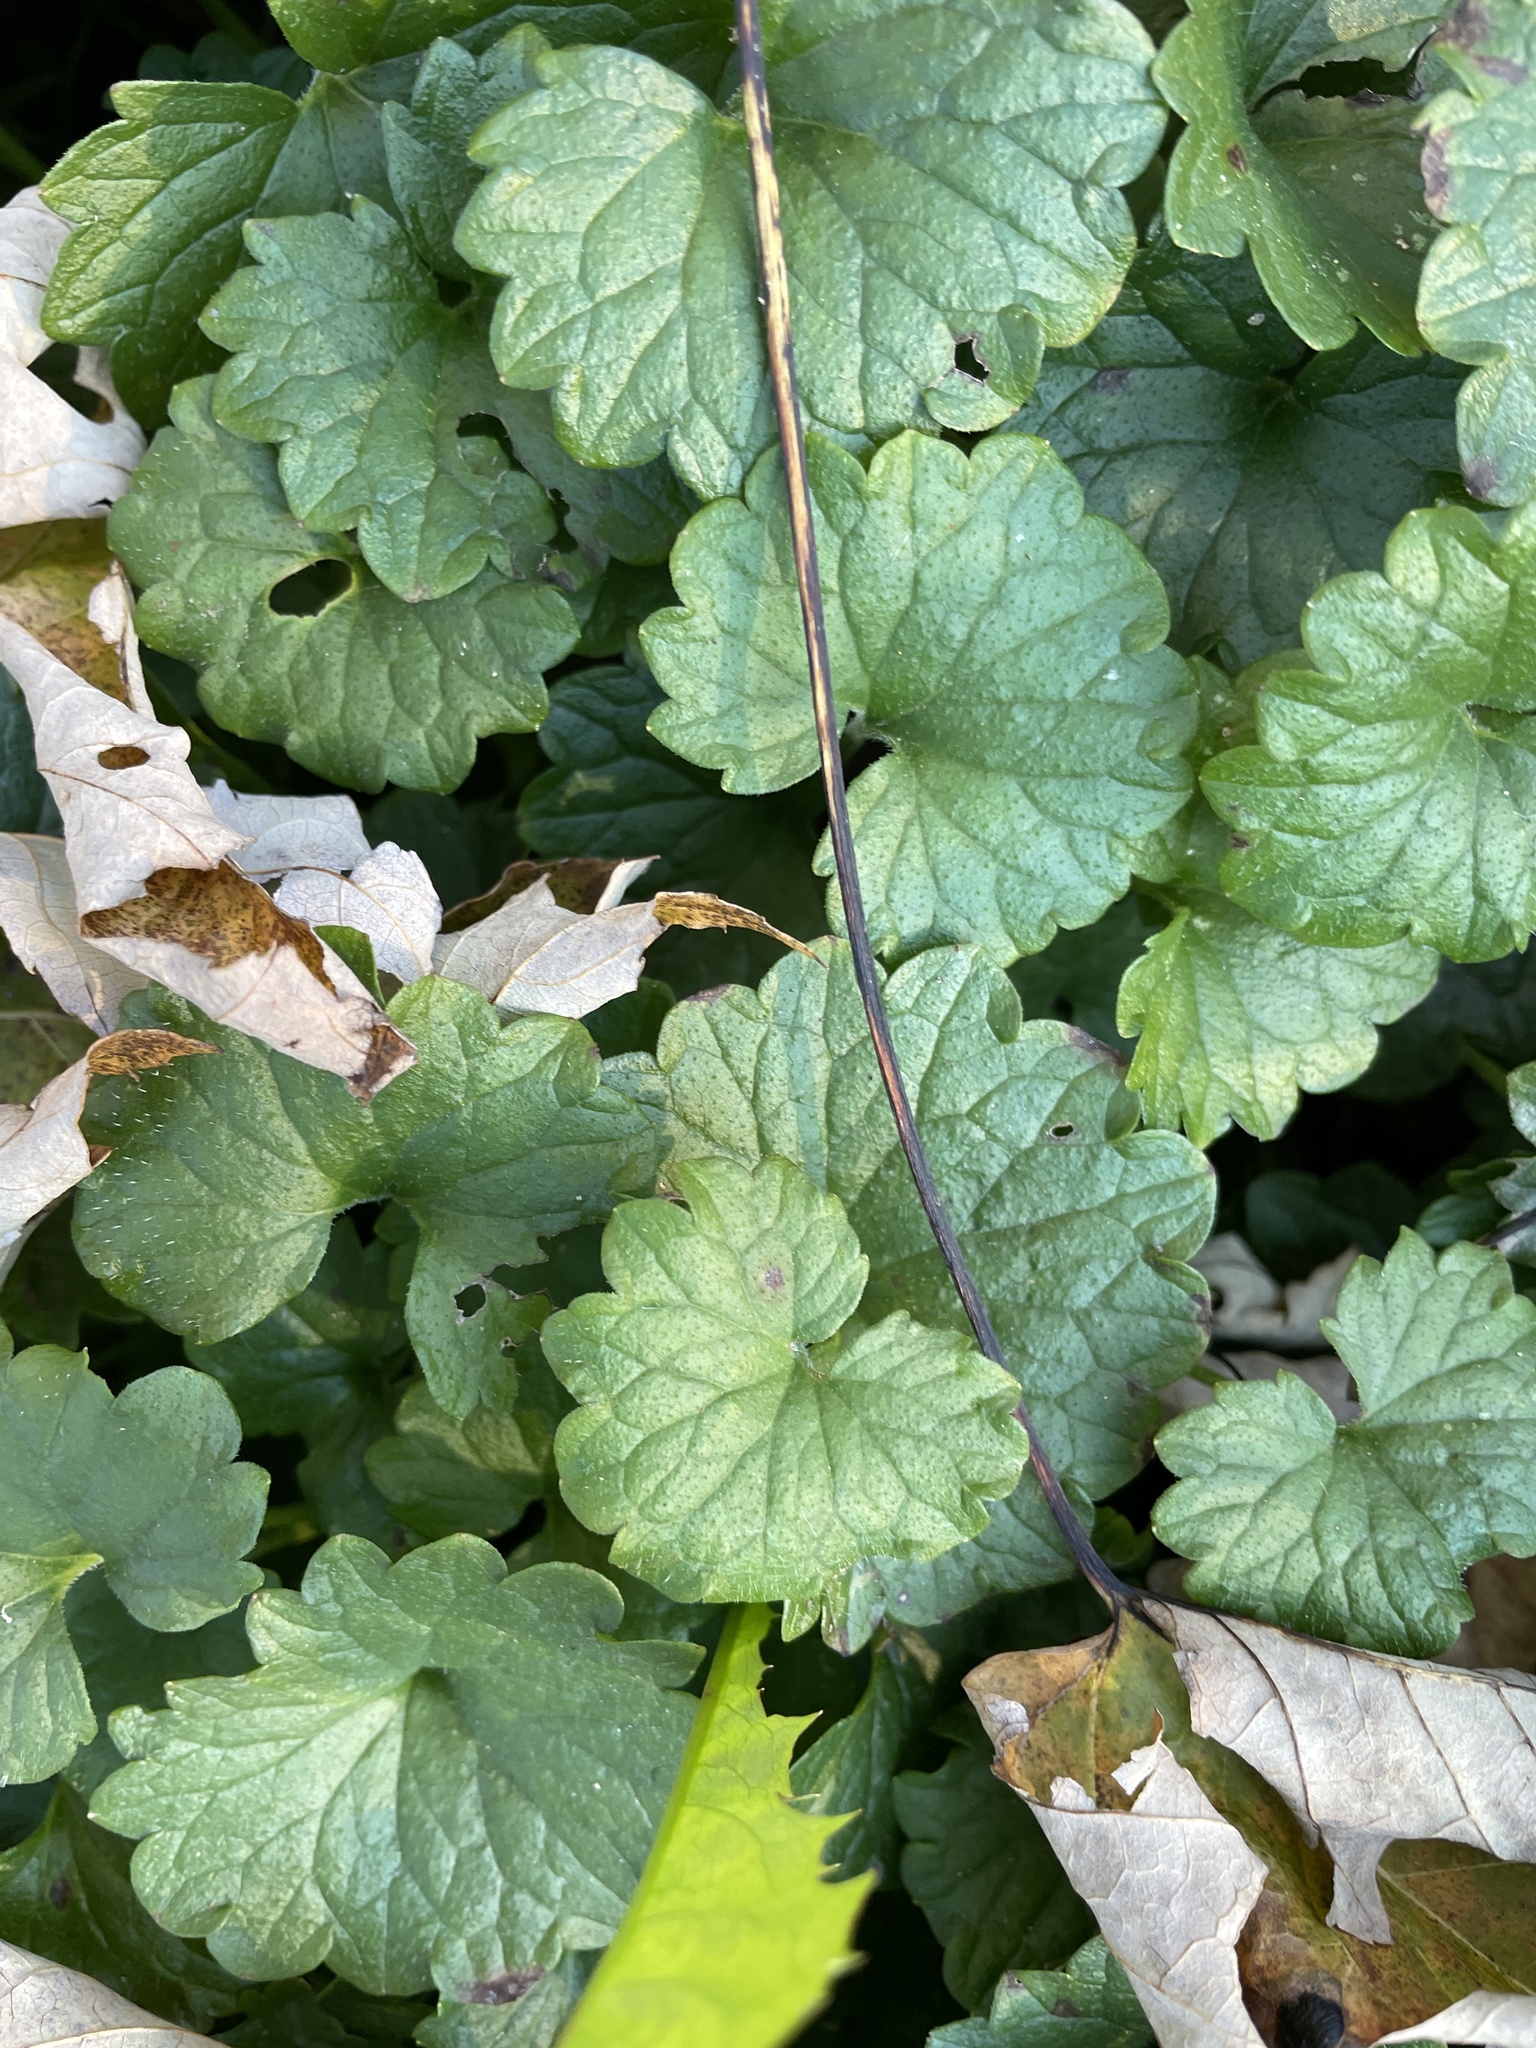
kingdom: Plantae
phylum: Tracheophyta
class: Magnoliopsida
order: Lamiales
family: Lamiaceae
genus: Glechoma
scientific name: Glechoma hederacea
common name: Ground ivy
